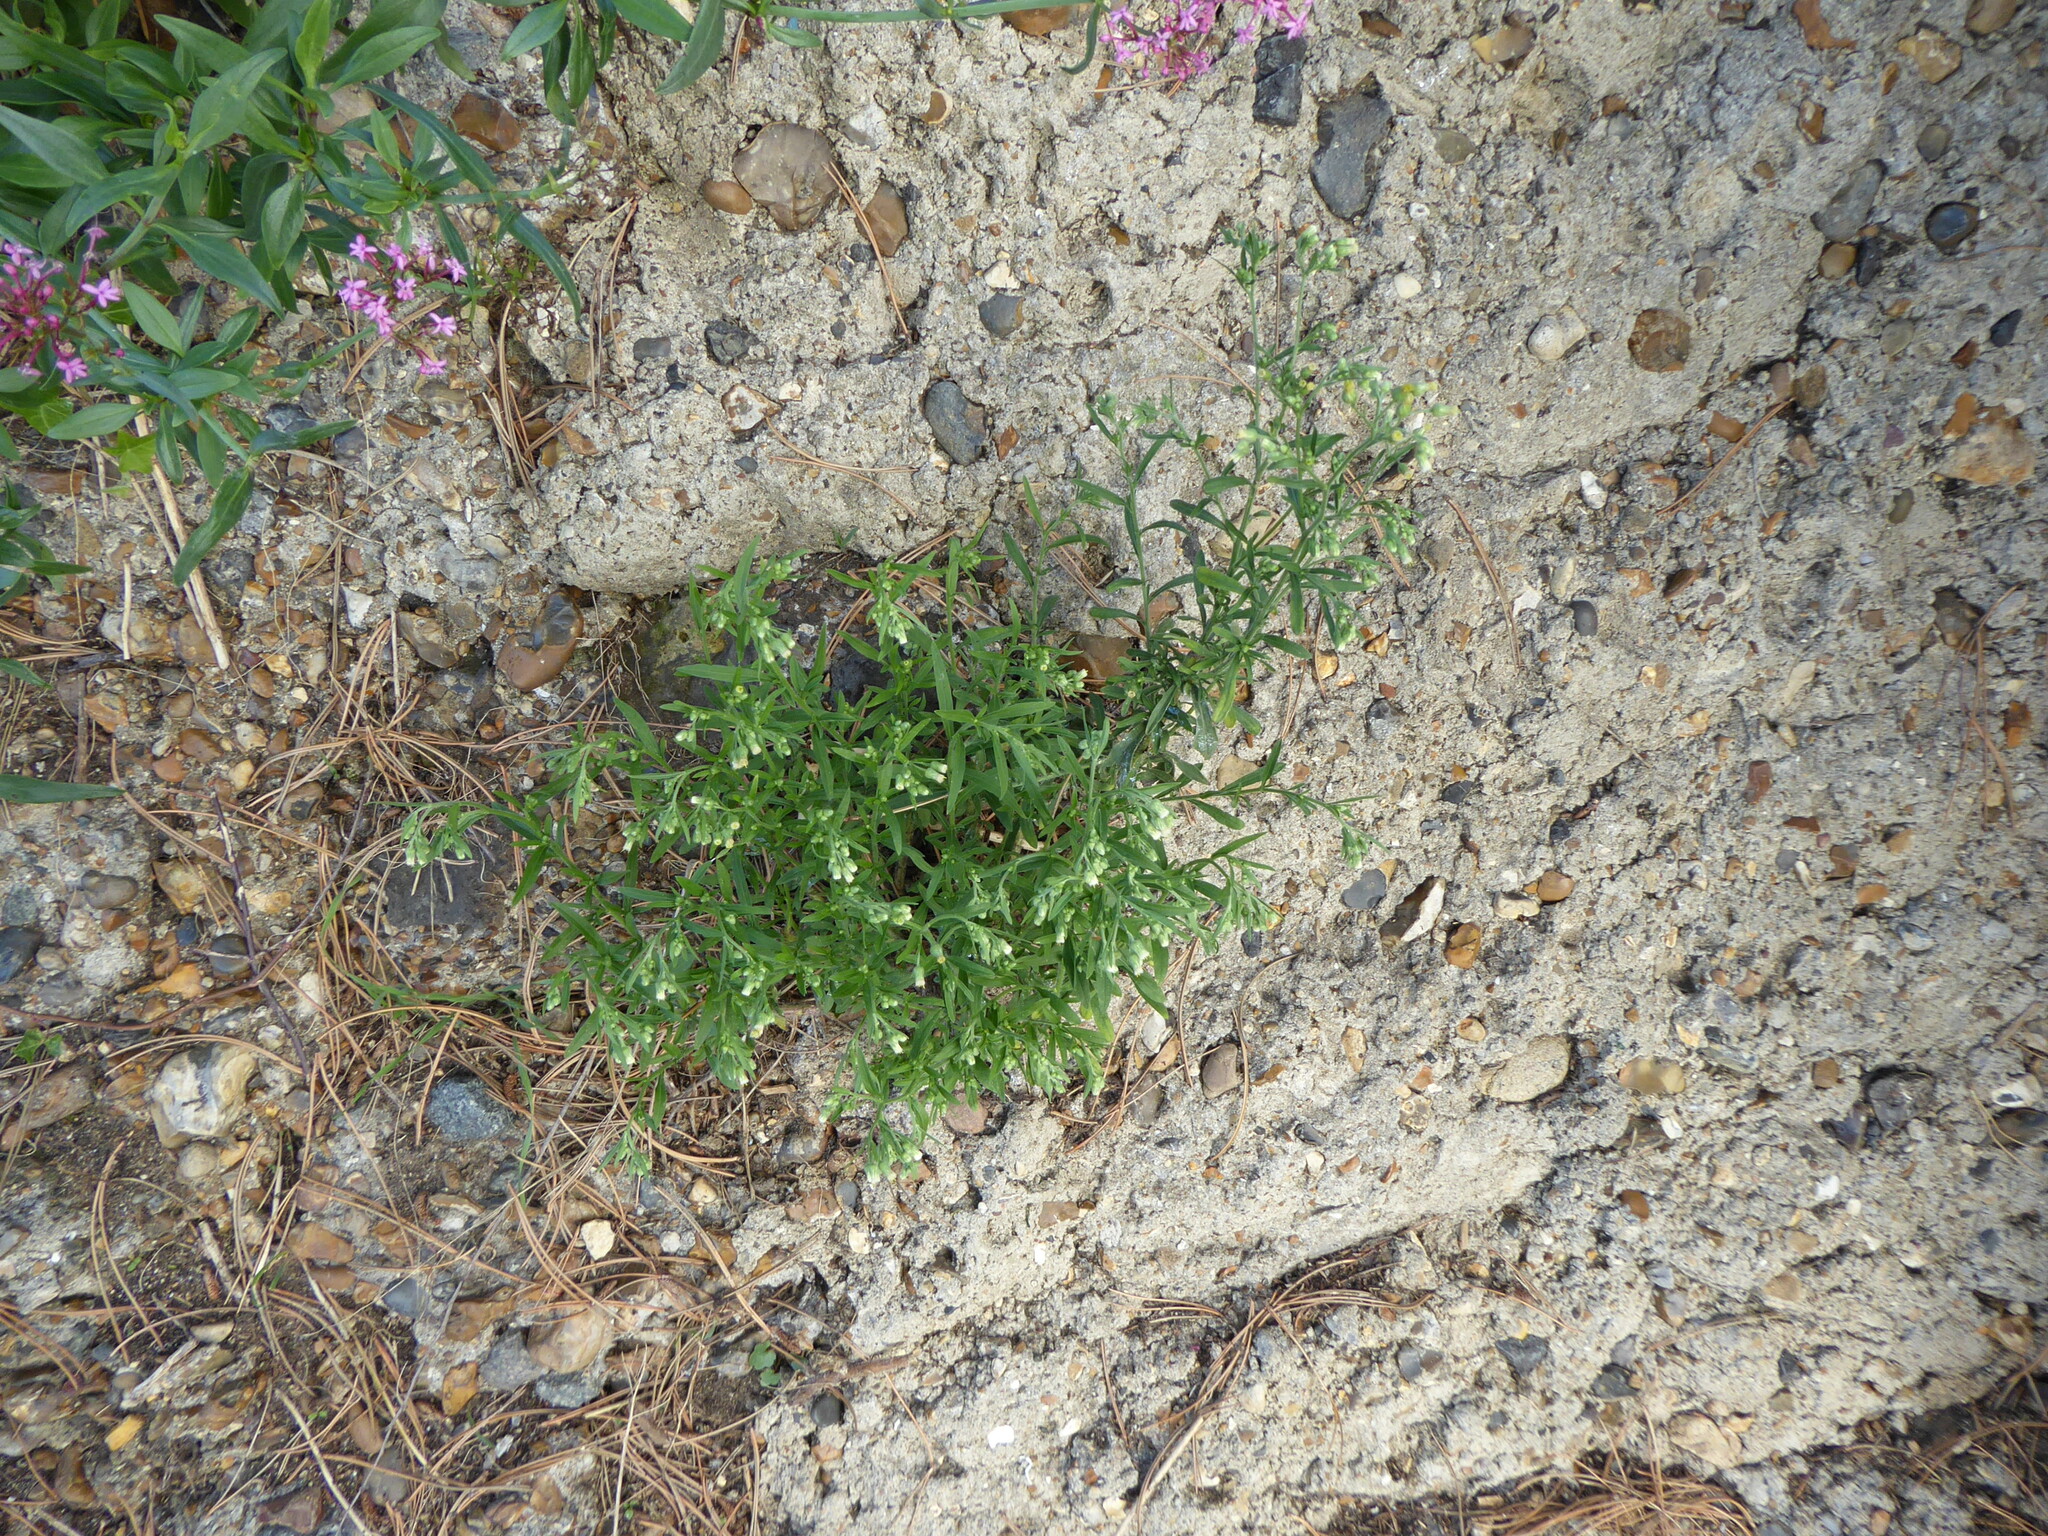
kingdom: Plantae
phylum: Tracheophyta
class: Magnoliopsida
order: Asterales
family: Asteraceae
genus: Erigeron
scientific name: Erigeron sumatrensis
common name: Daisy
